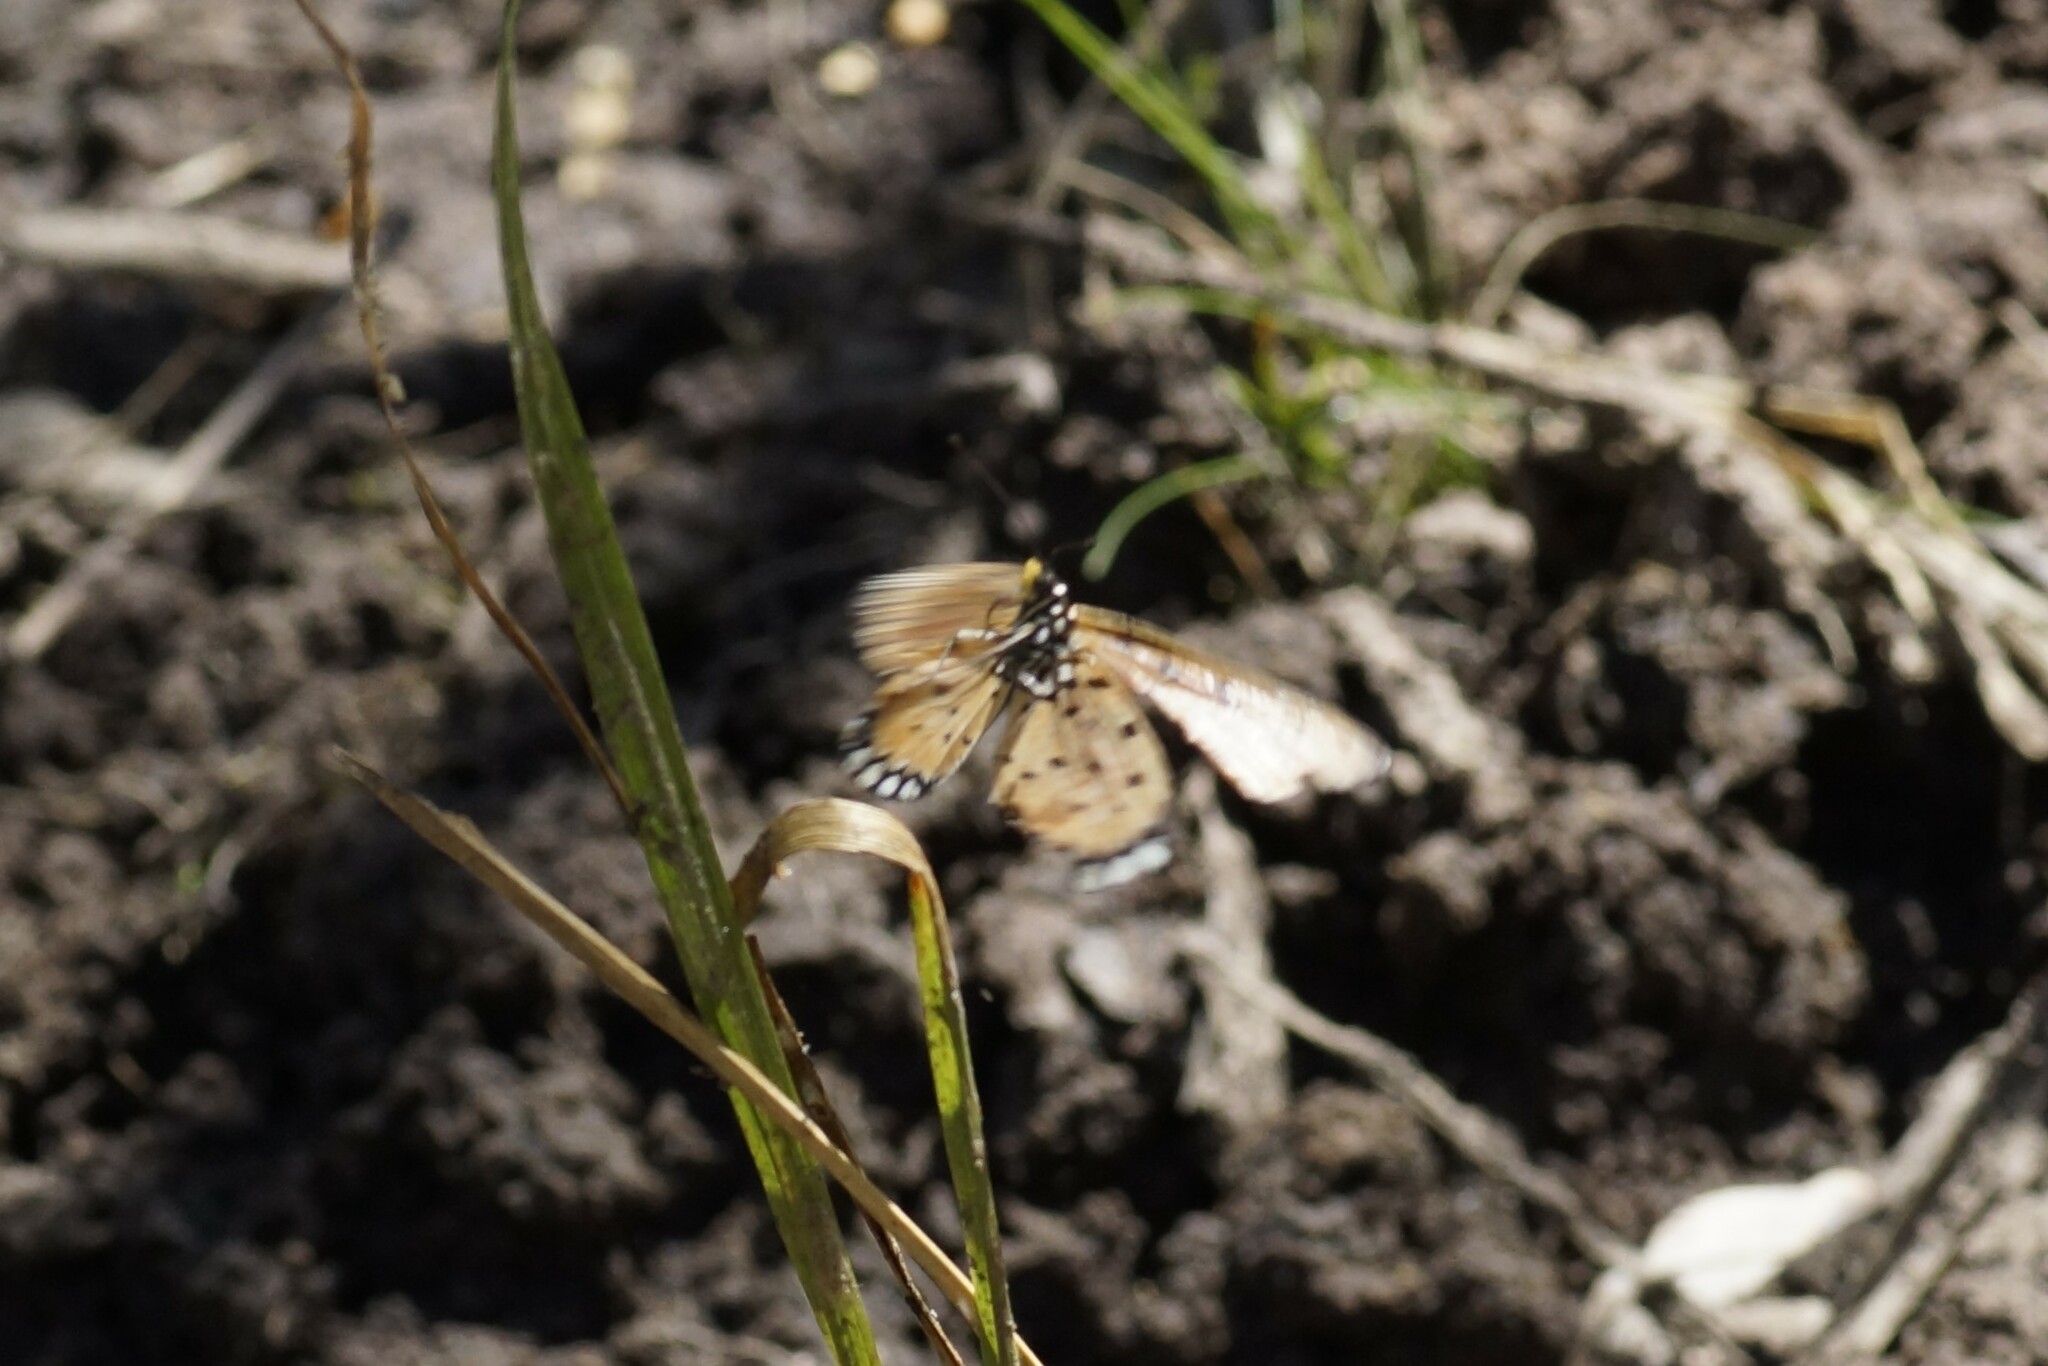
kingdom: Animalia
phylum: Arthropoda
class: Insecta
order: Lepidoptera
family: Nymphalidae
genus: Acraea
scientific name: Acraea terpsicore
